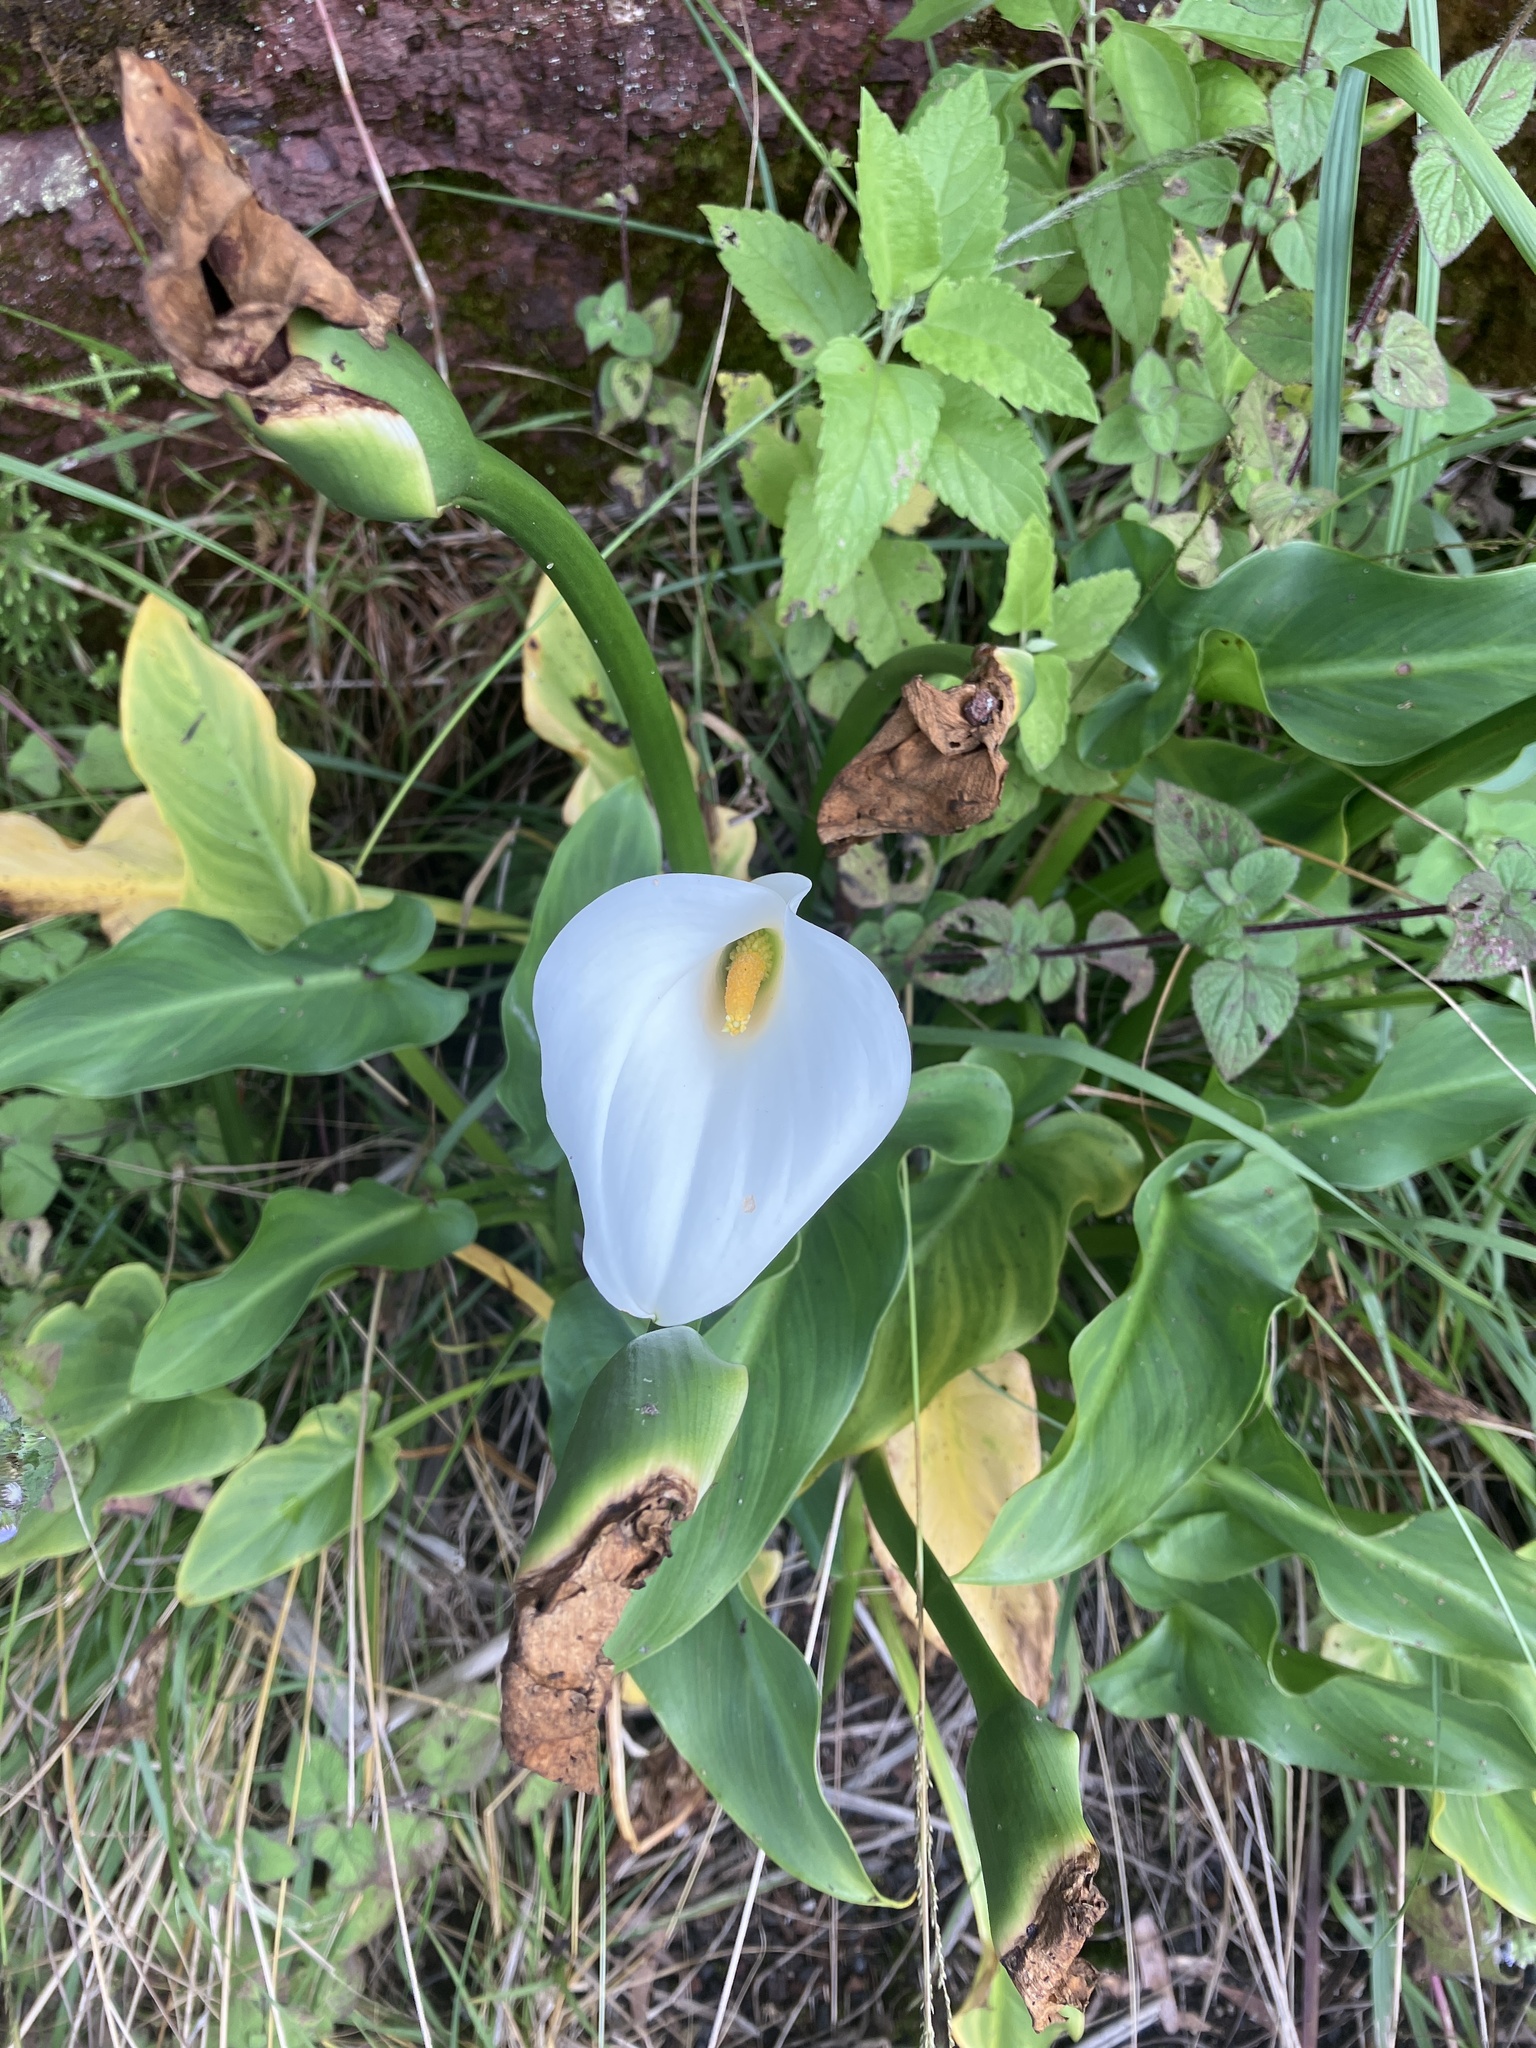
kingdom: Plantae
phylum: Tracheophyta
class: Liliopsida
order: Alismatales
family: Araceae
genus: Zantedeschia
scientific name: Zantedeschia aethiopica
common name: Altar-lily
